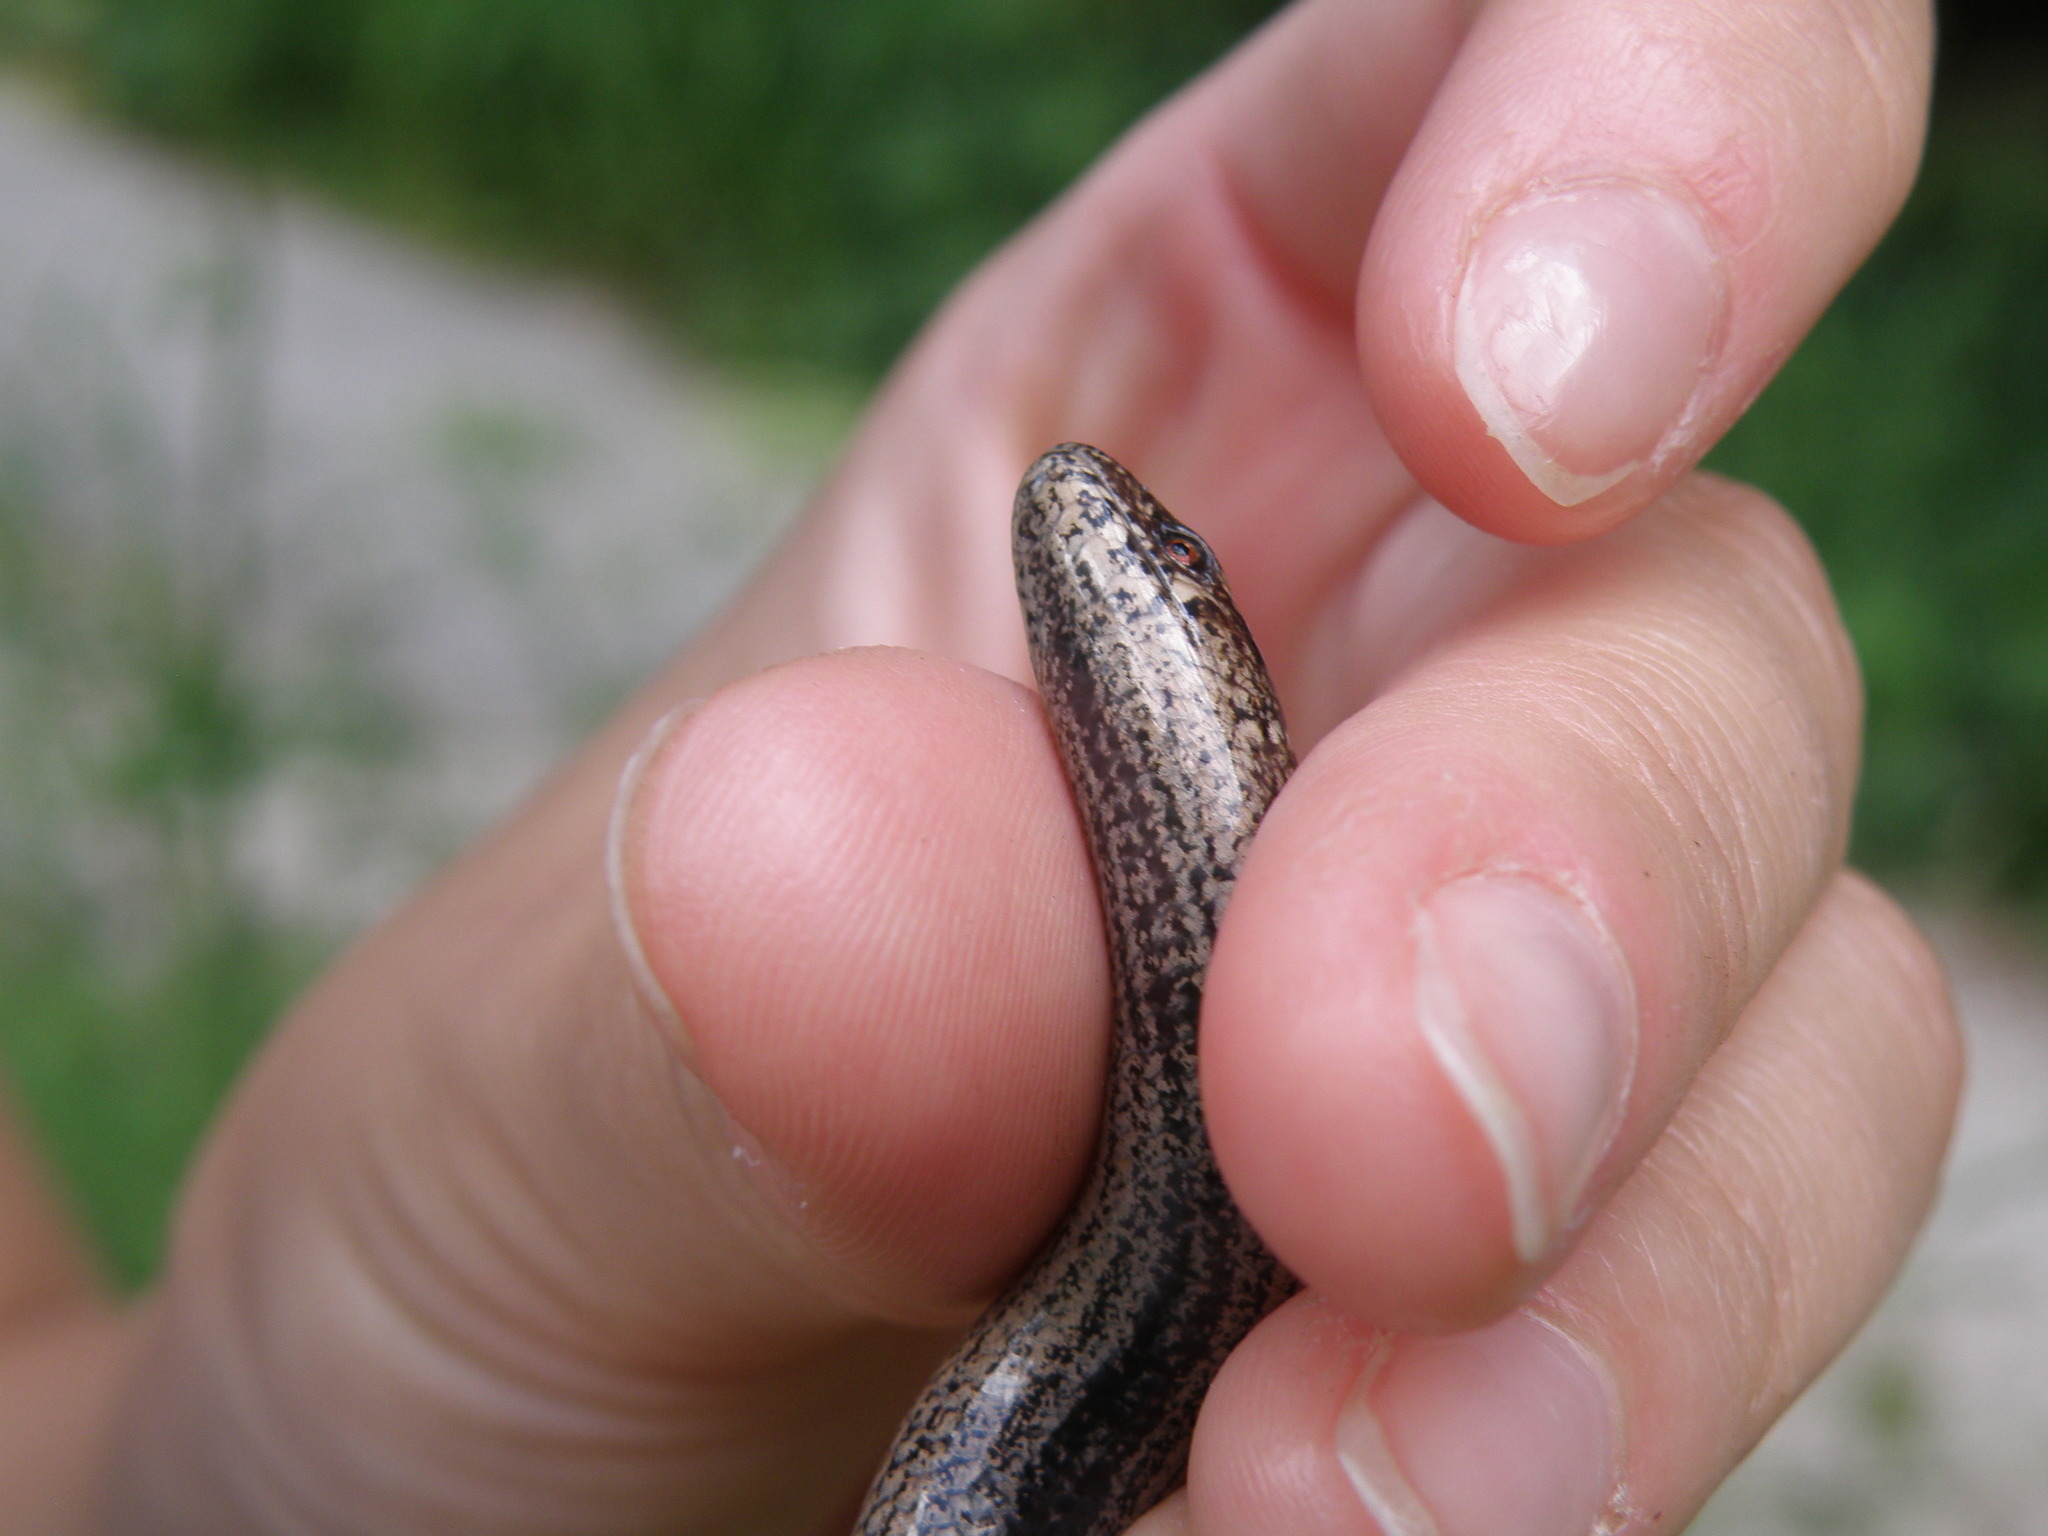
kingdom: Animalia
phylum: Chordata
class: Squamata
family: Anguidae
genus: Anguis
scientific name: Anguis veronensis
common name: Italian slow worm
